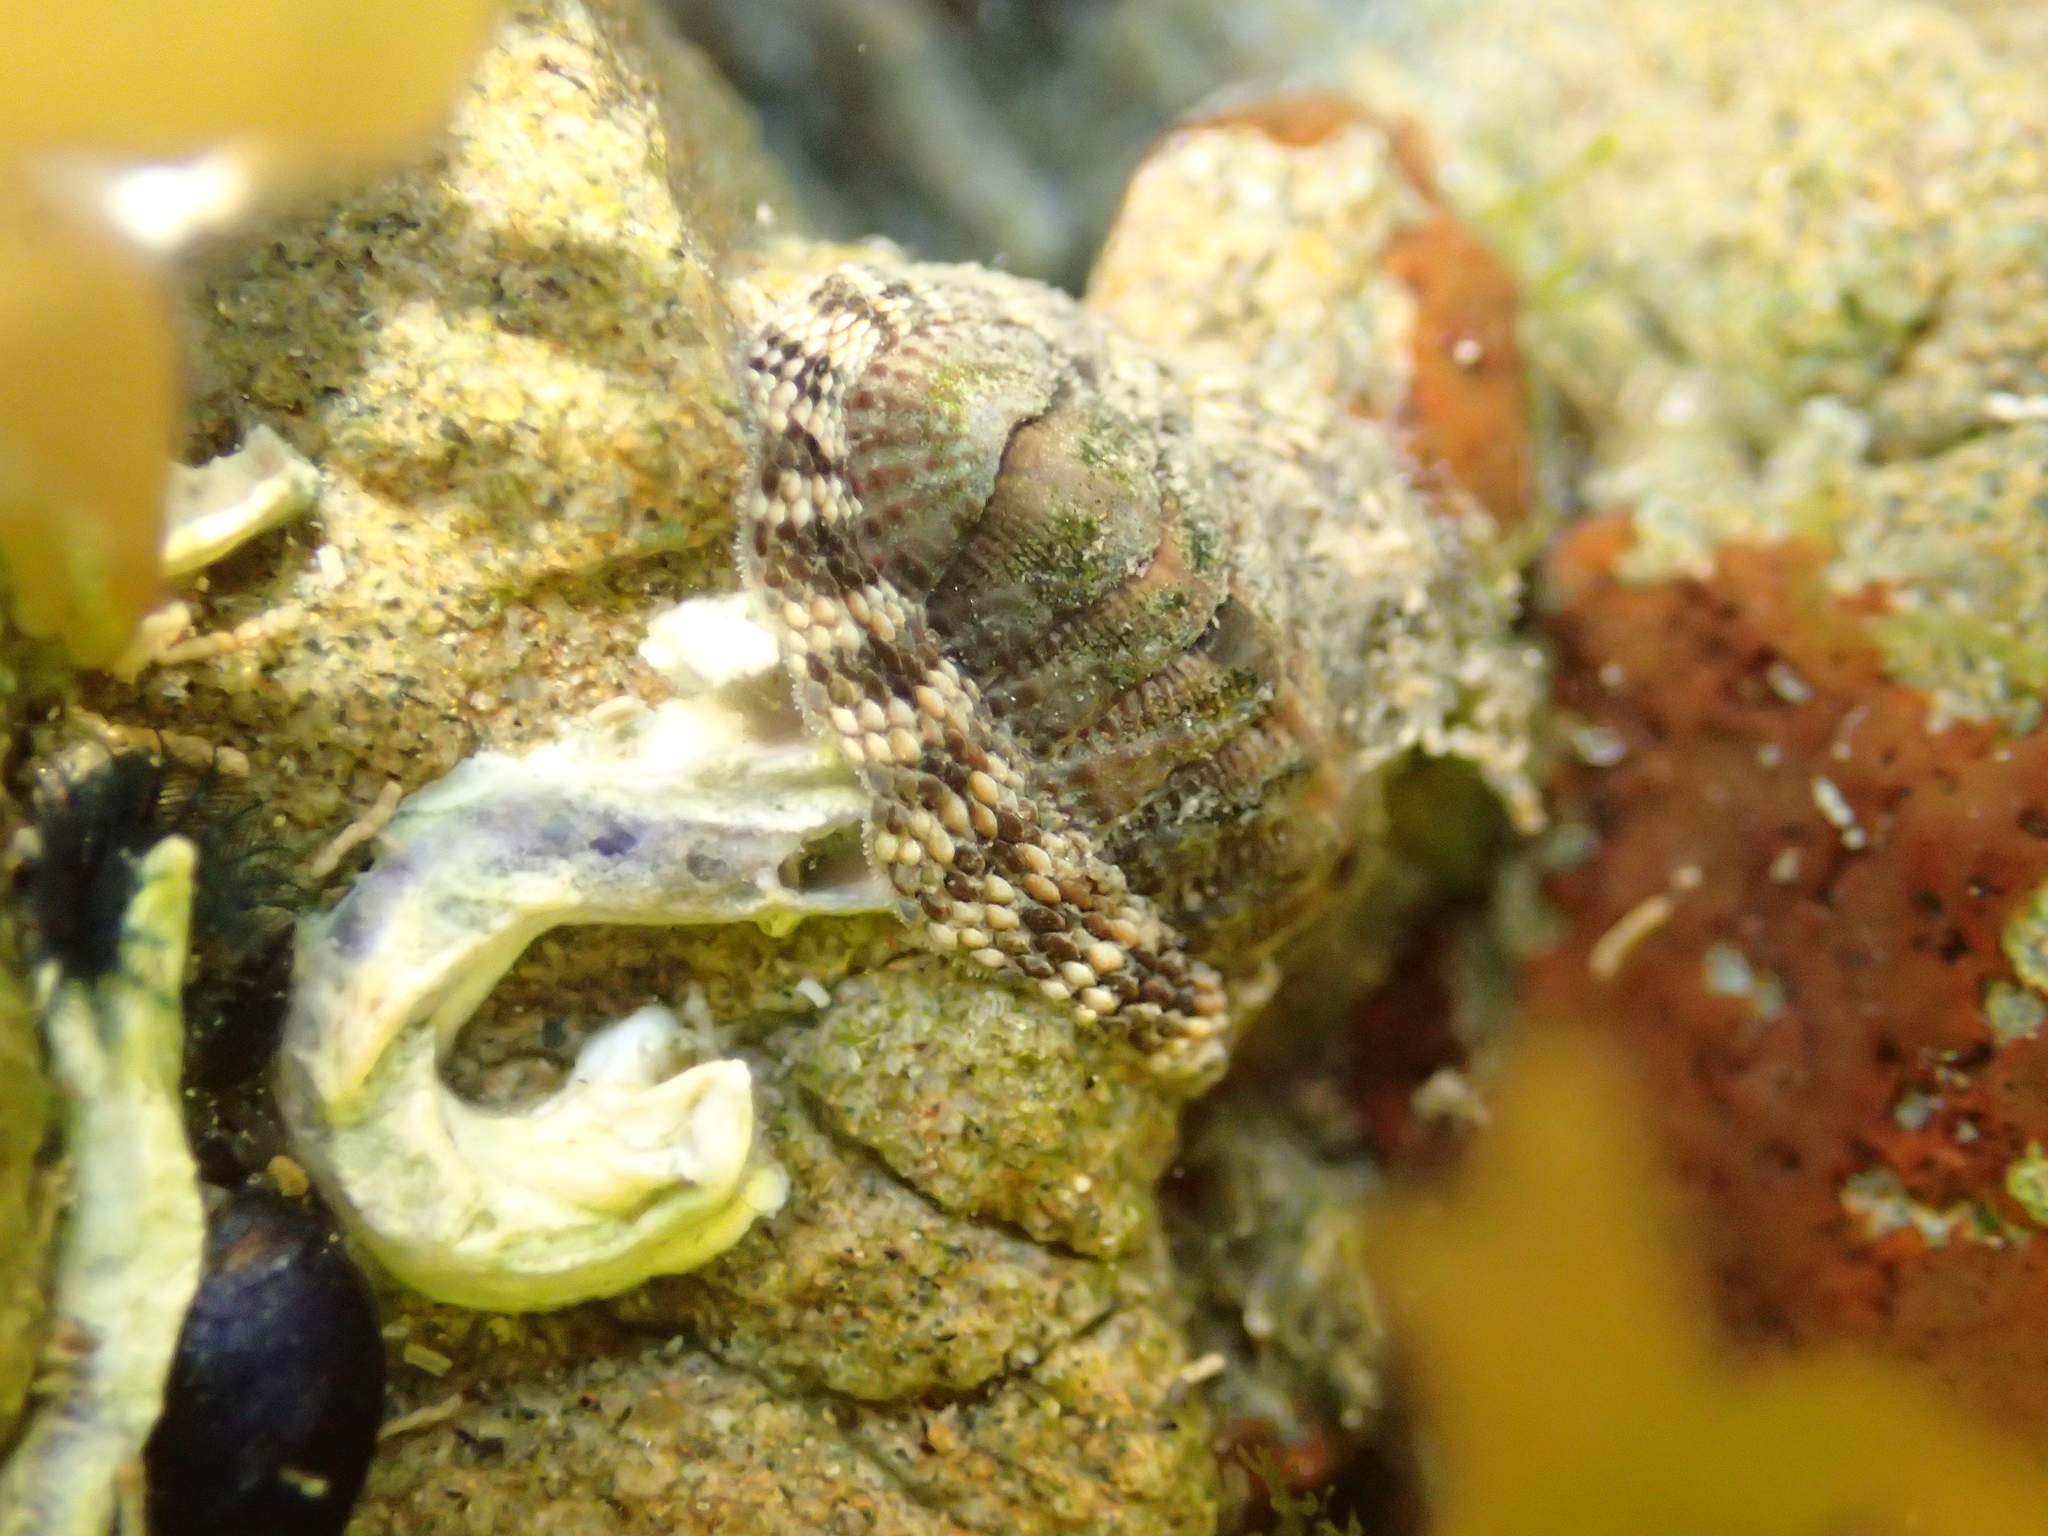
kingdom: Animalia
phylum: Mollusca
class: Polyplacophora
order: Chitonida
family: Chitonidae
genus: Sypharochiton
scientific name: Sypharochiton pelliserpentis
